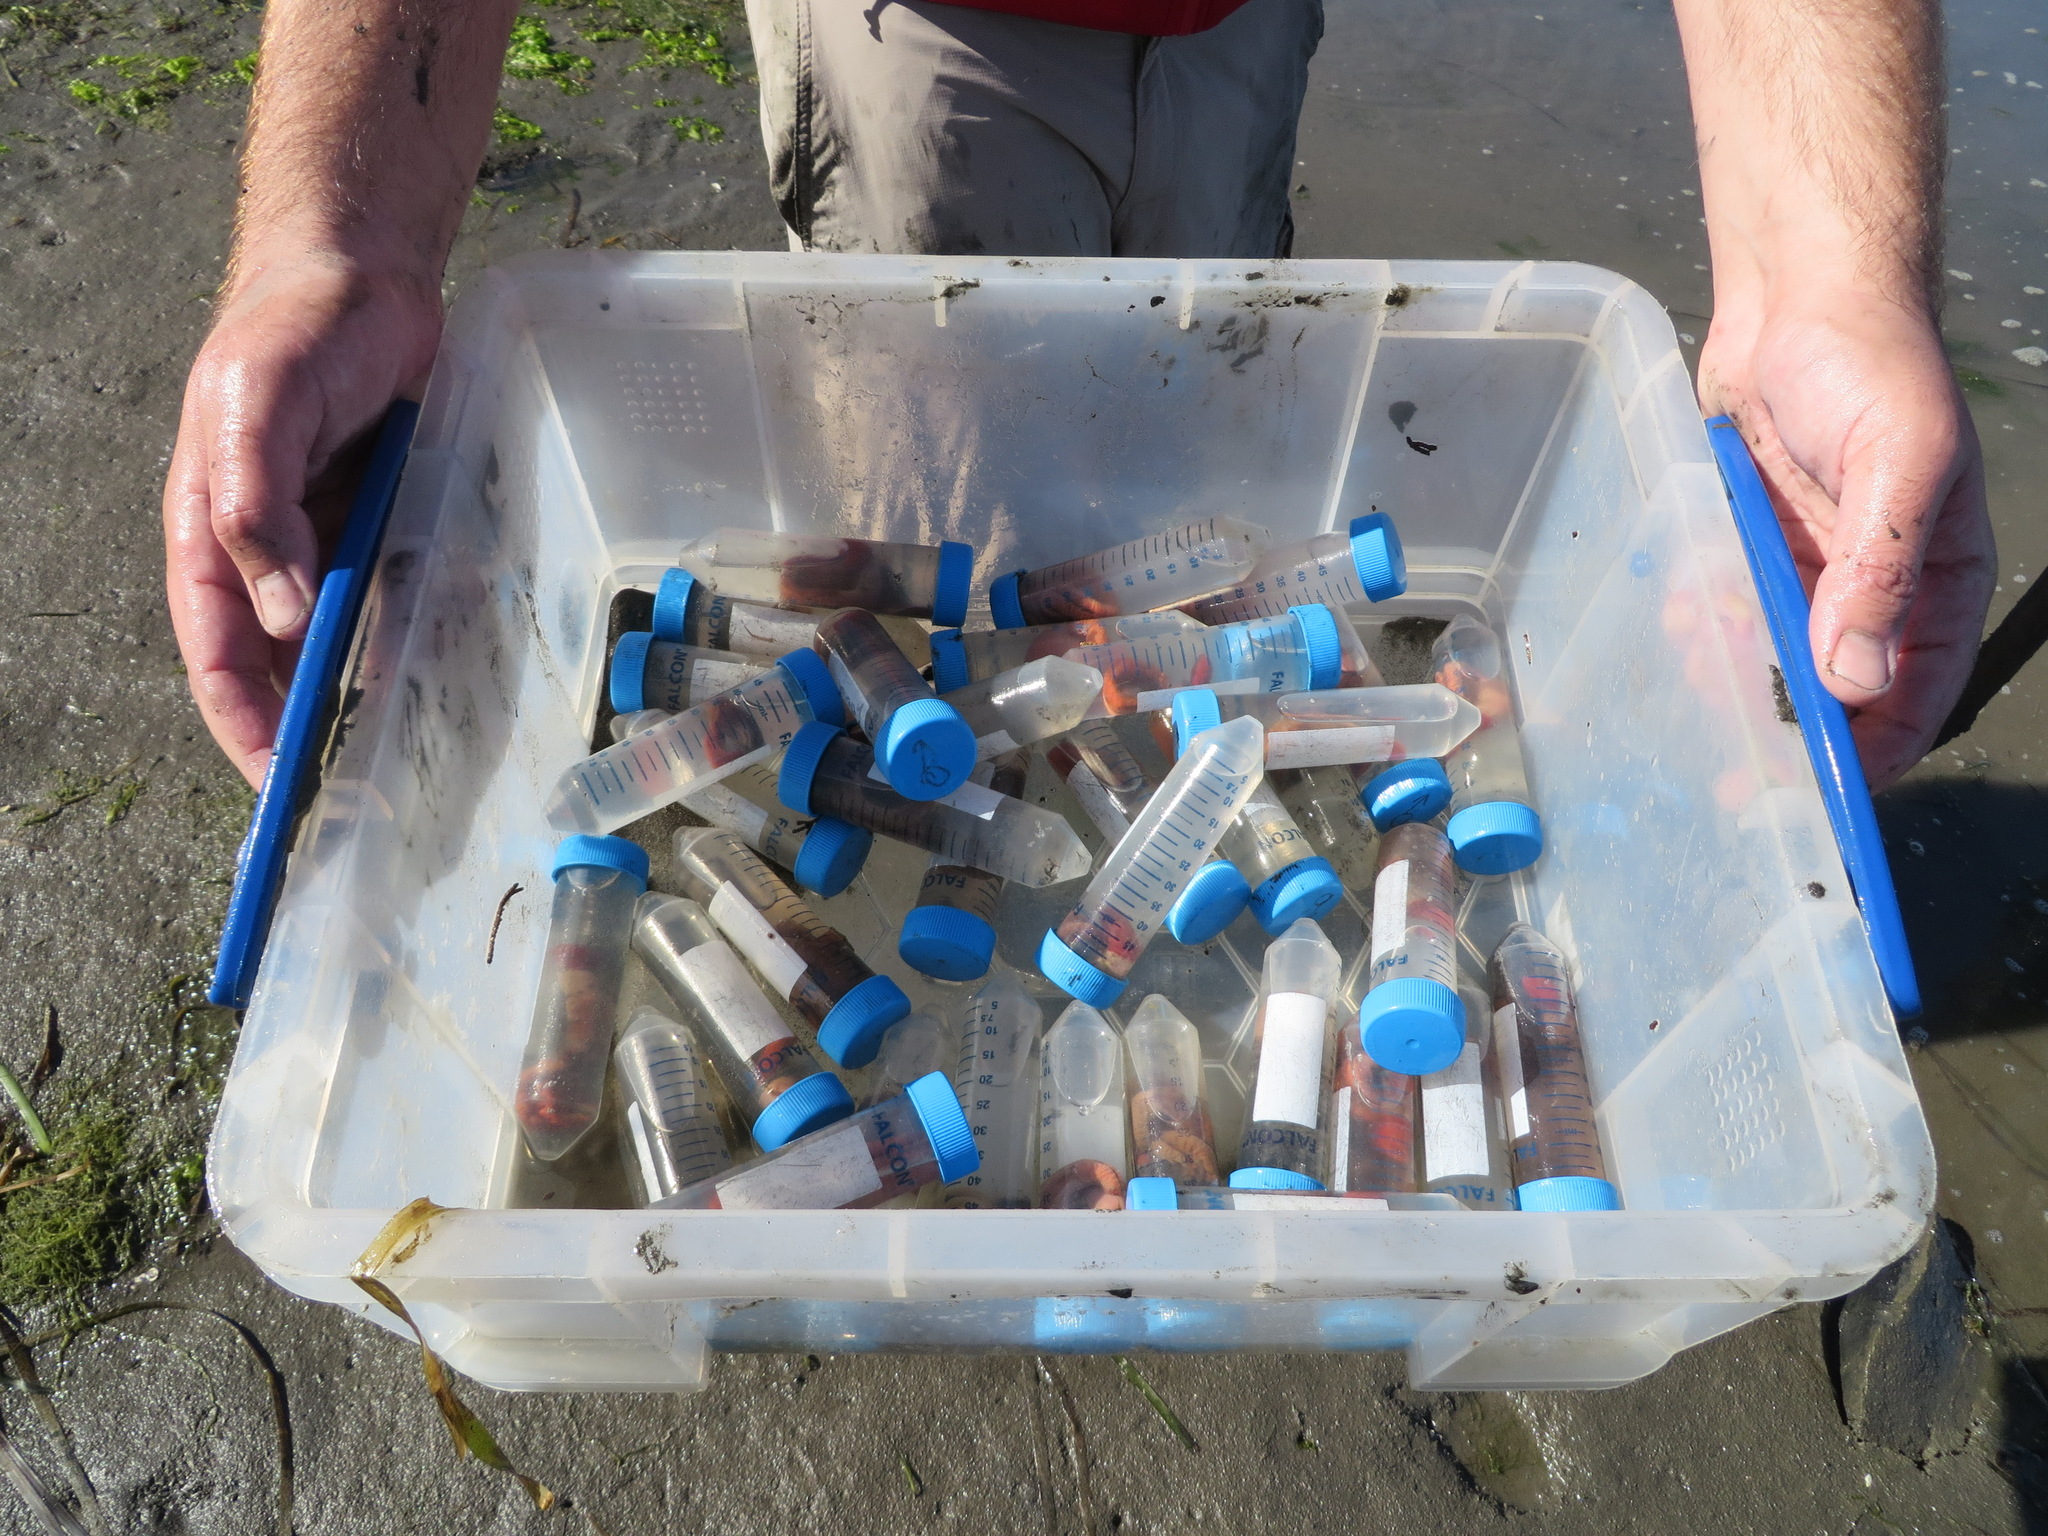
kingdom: Animalia
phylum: Hemichordata
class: Enteropneusta
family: Spengelidae
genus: Schizocardium
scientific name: Schizocardium californicum
